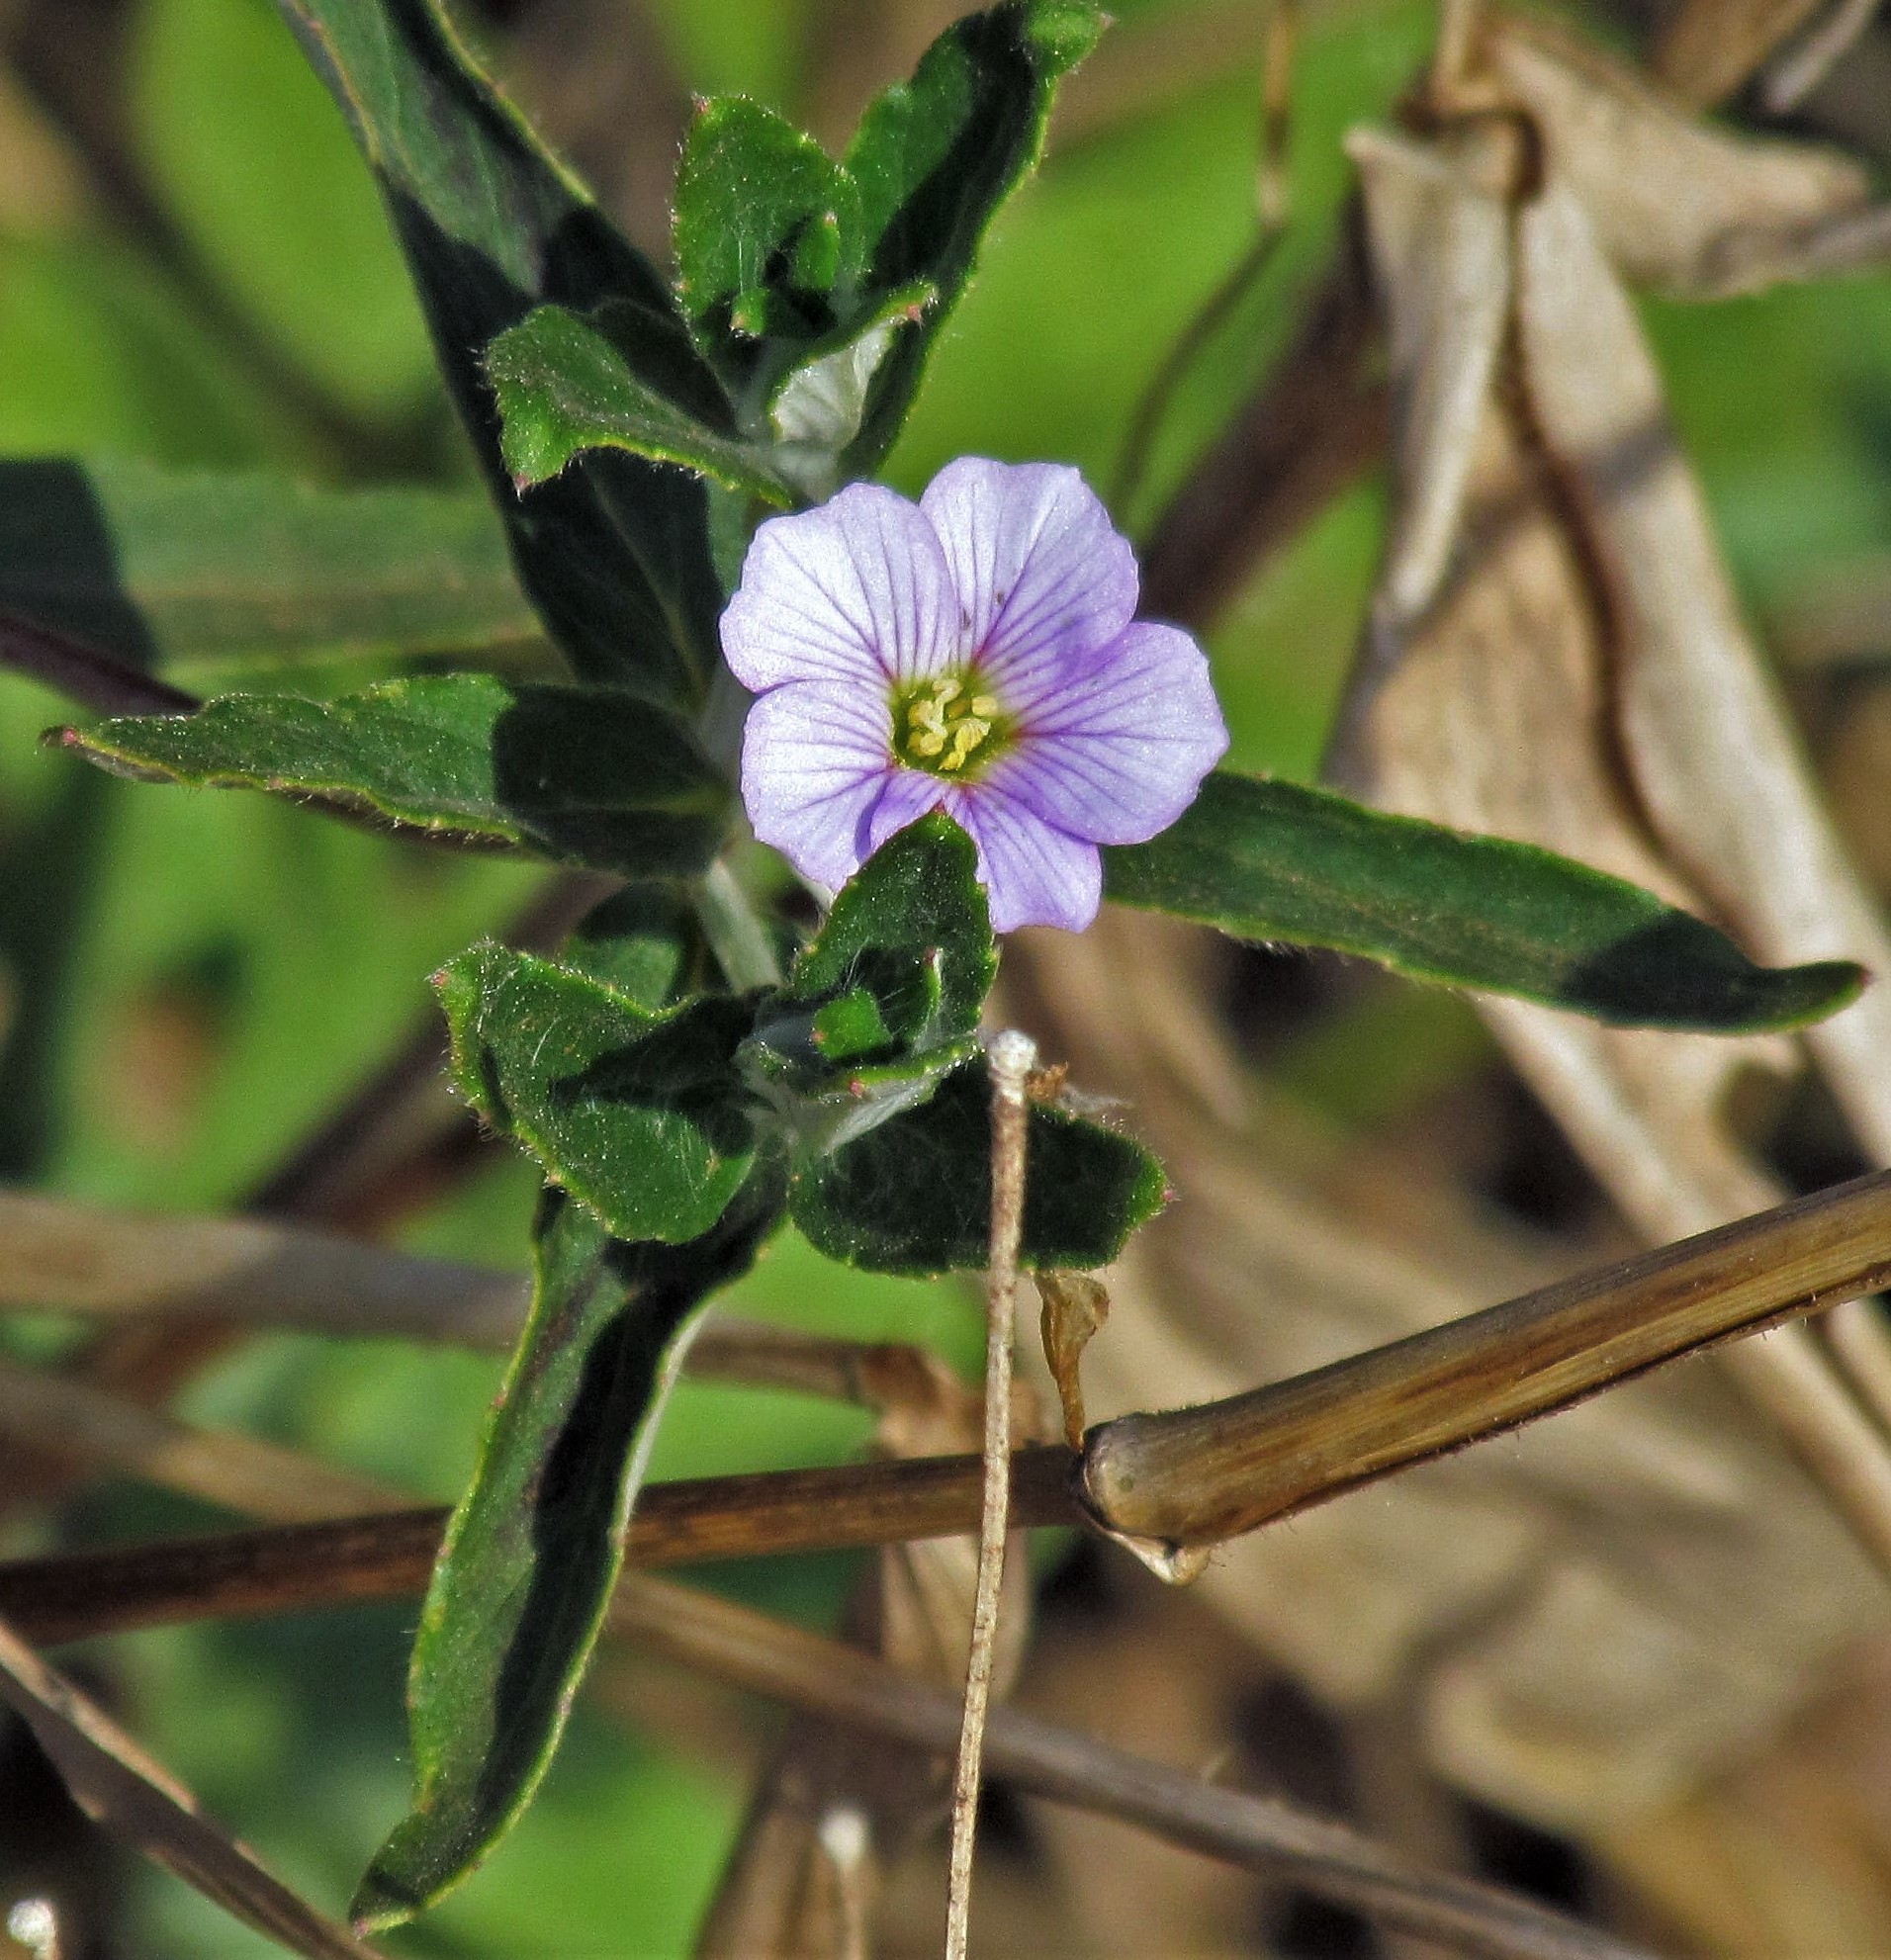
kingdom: Plantae
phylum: Tracheophyta
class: Magnoliopsida
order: Malvales
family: Malvaceae
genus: Melochia
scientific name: Melochia pyramidata
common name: Pyramidflower
